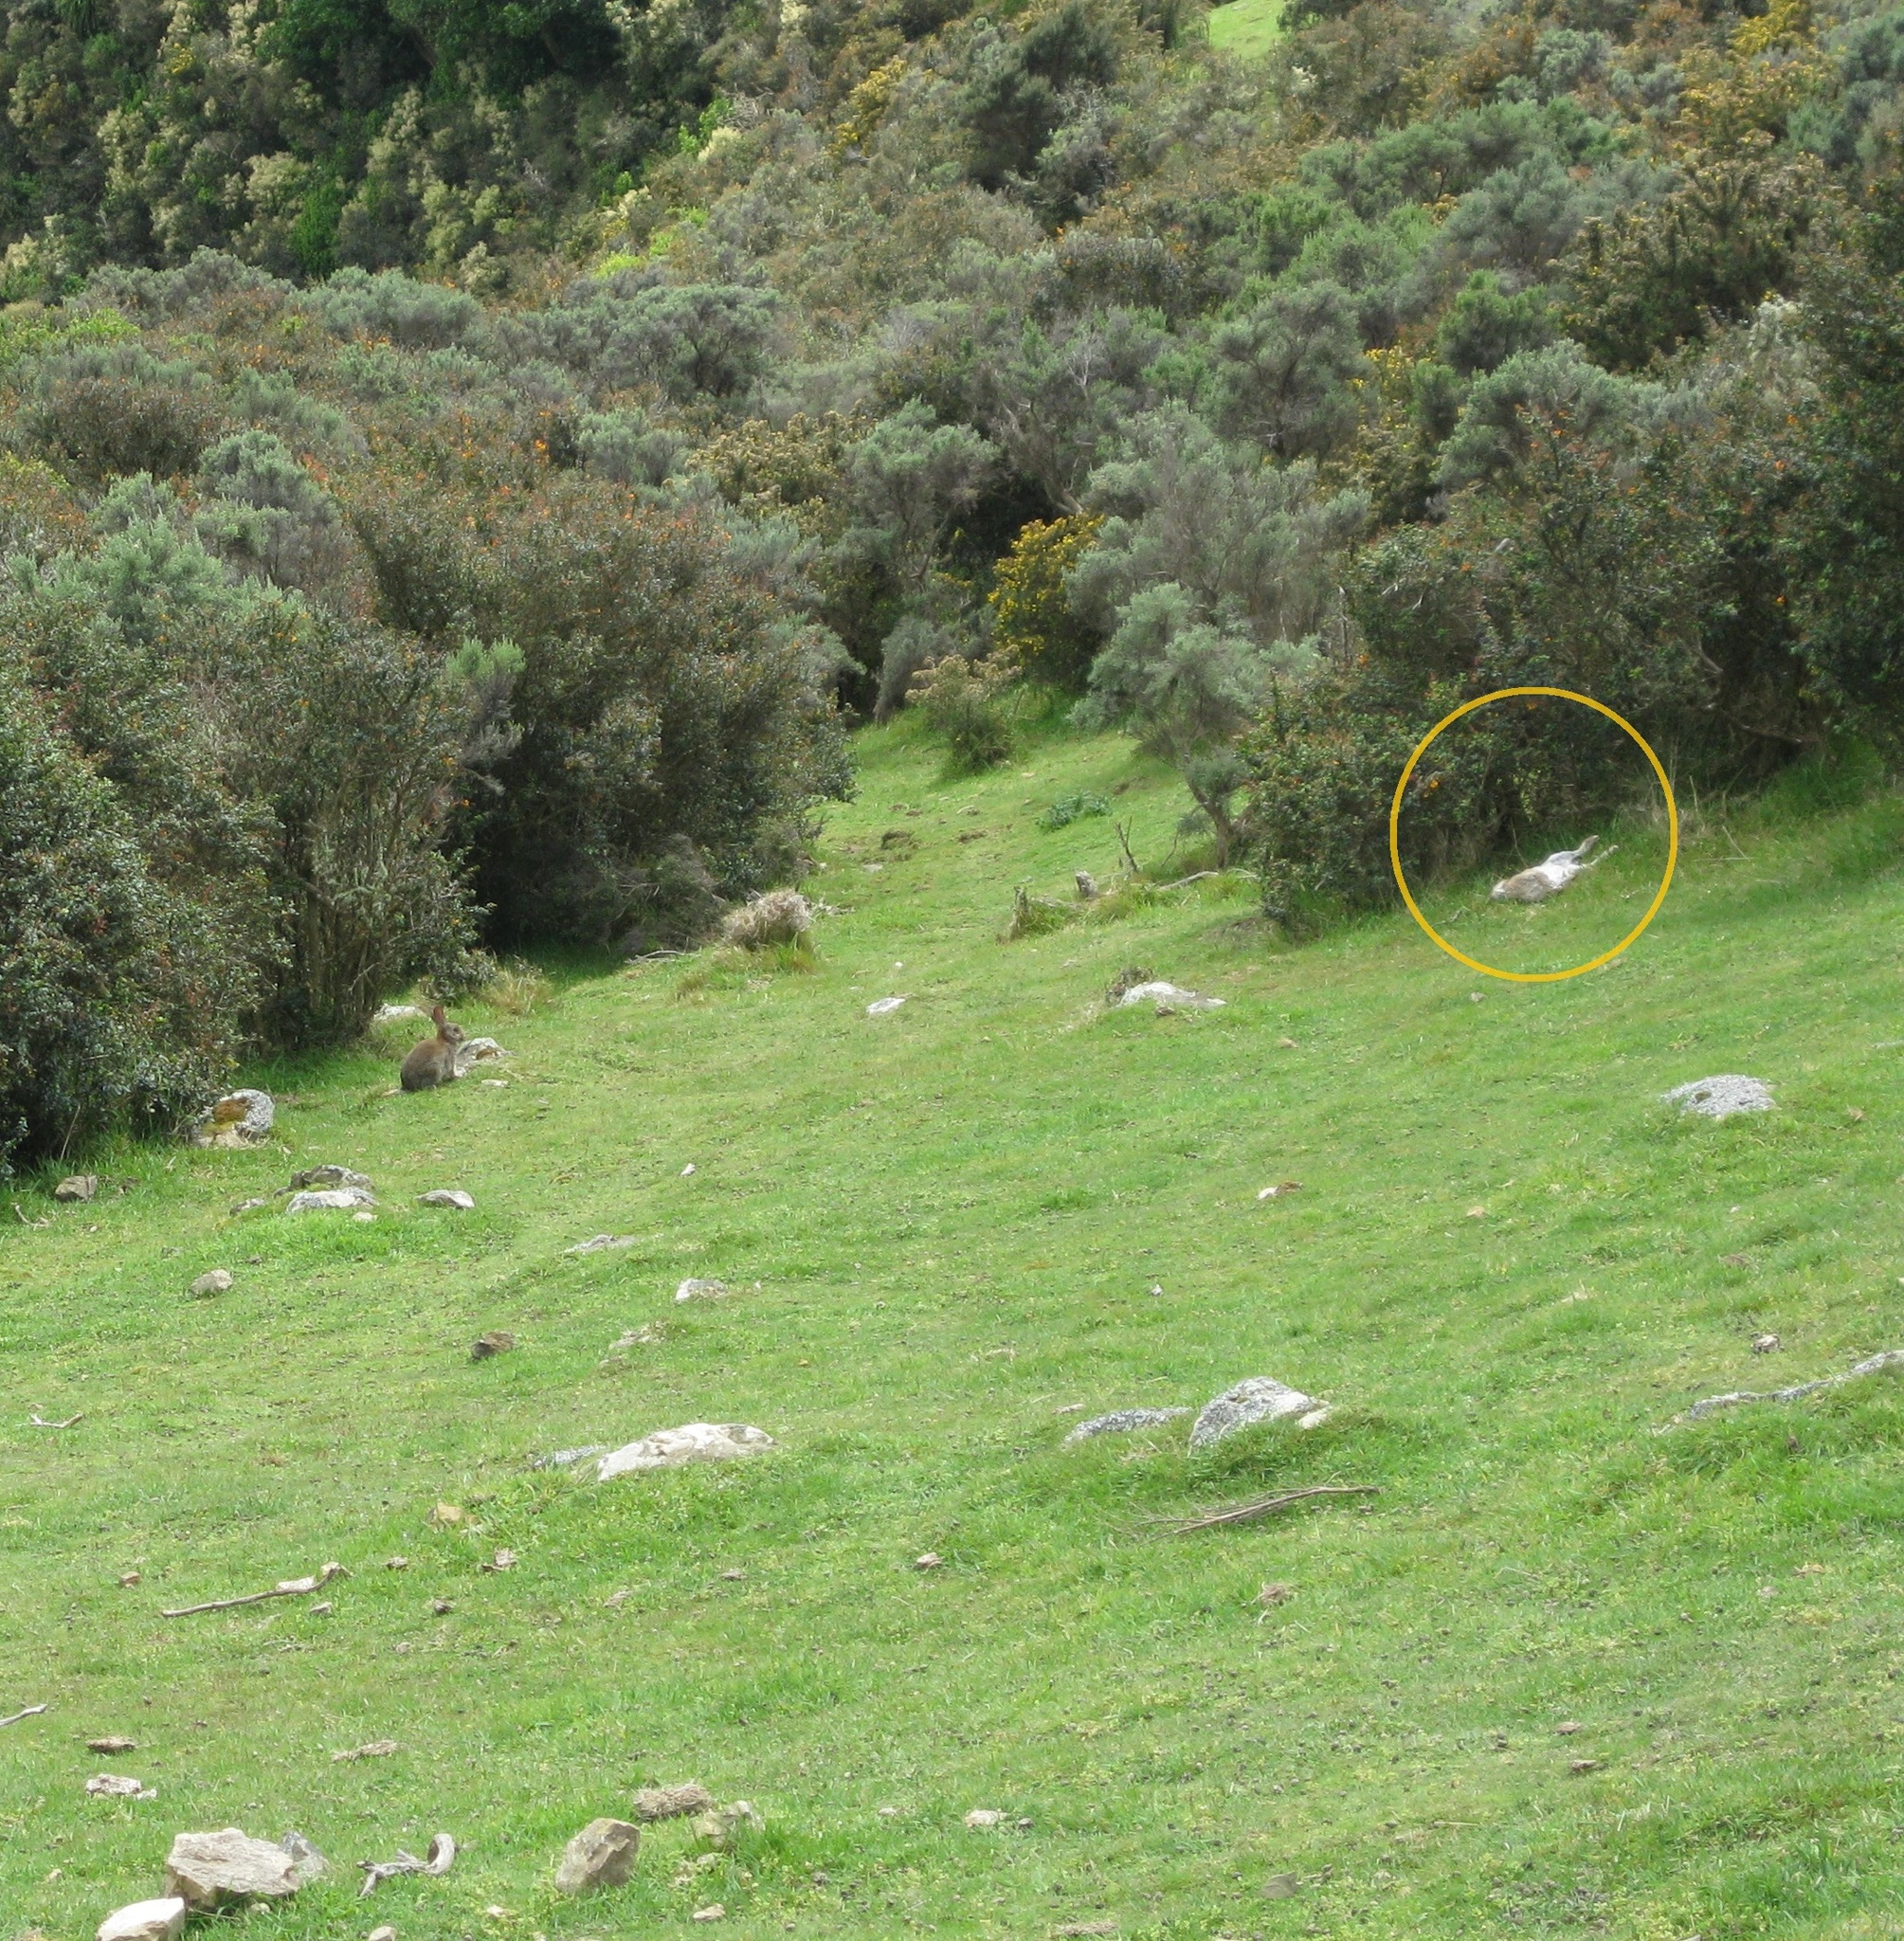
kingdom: Animalia
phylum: Chordata
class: Mammalia
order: Lagomorpha
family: Leporidae
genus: Oryctolagus
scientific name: Oryctolagus cuniculus
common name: European rabbit
